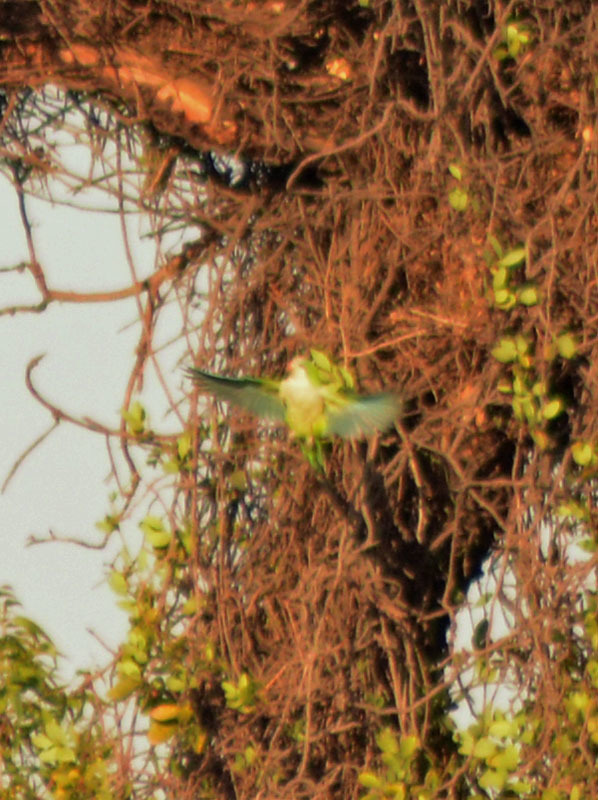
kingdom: Animalia
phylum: Chordata
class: Aves
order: Psittaciformes
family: Psittacidae
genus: Myiopsitta
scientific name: Myiopsitta monachus
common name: Monk parakeet
